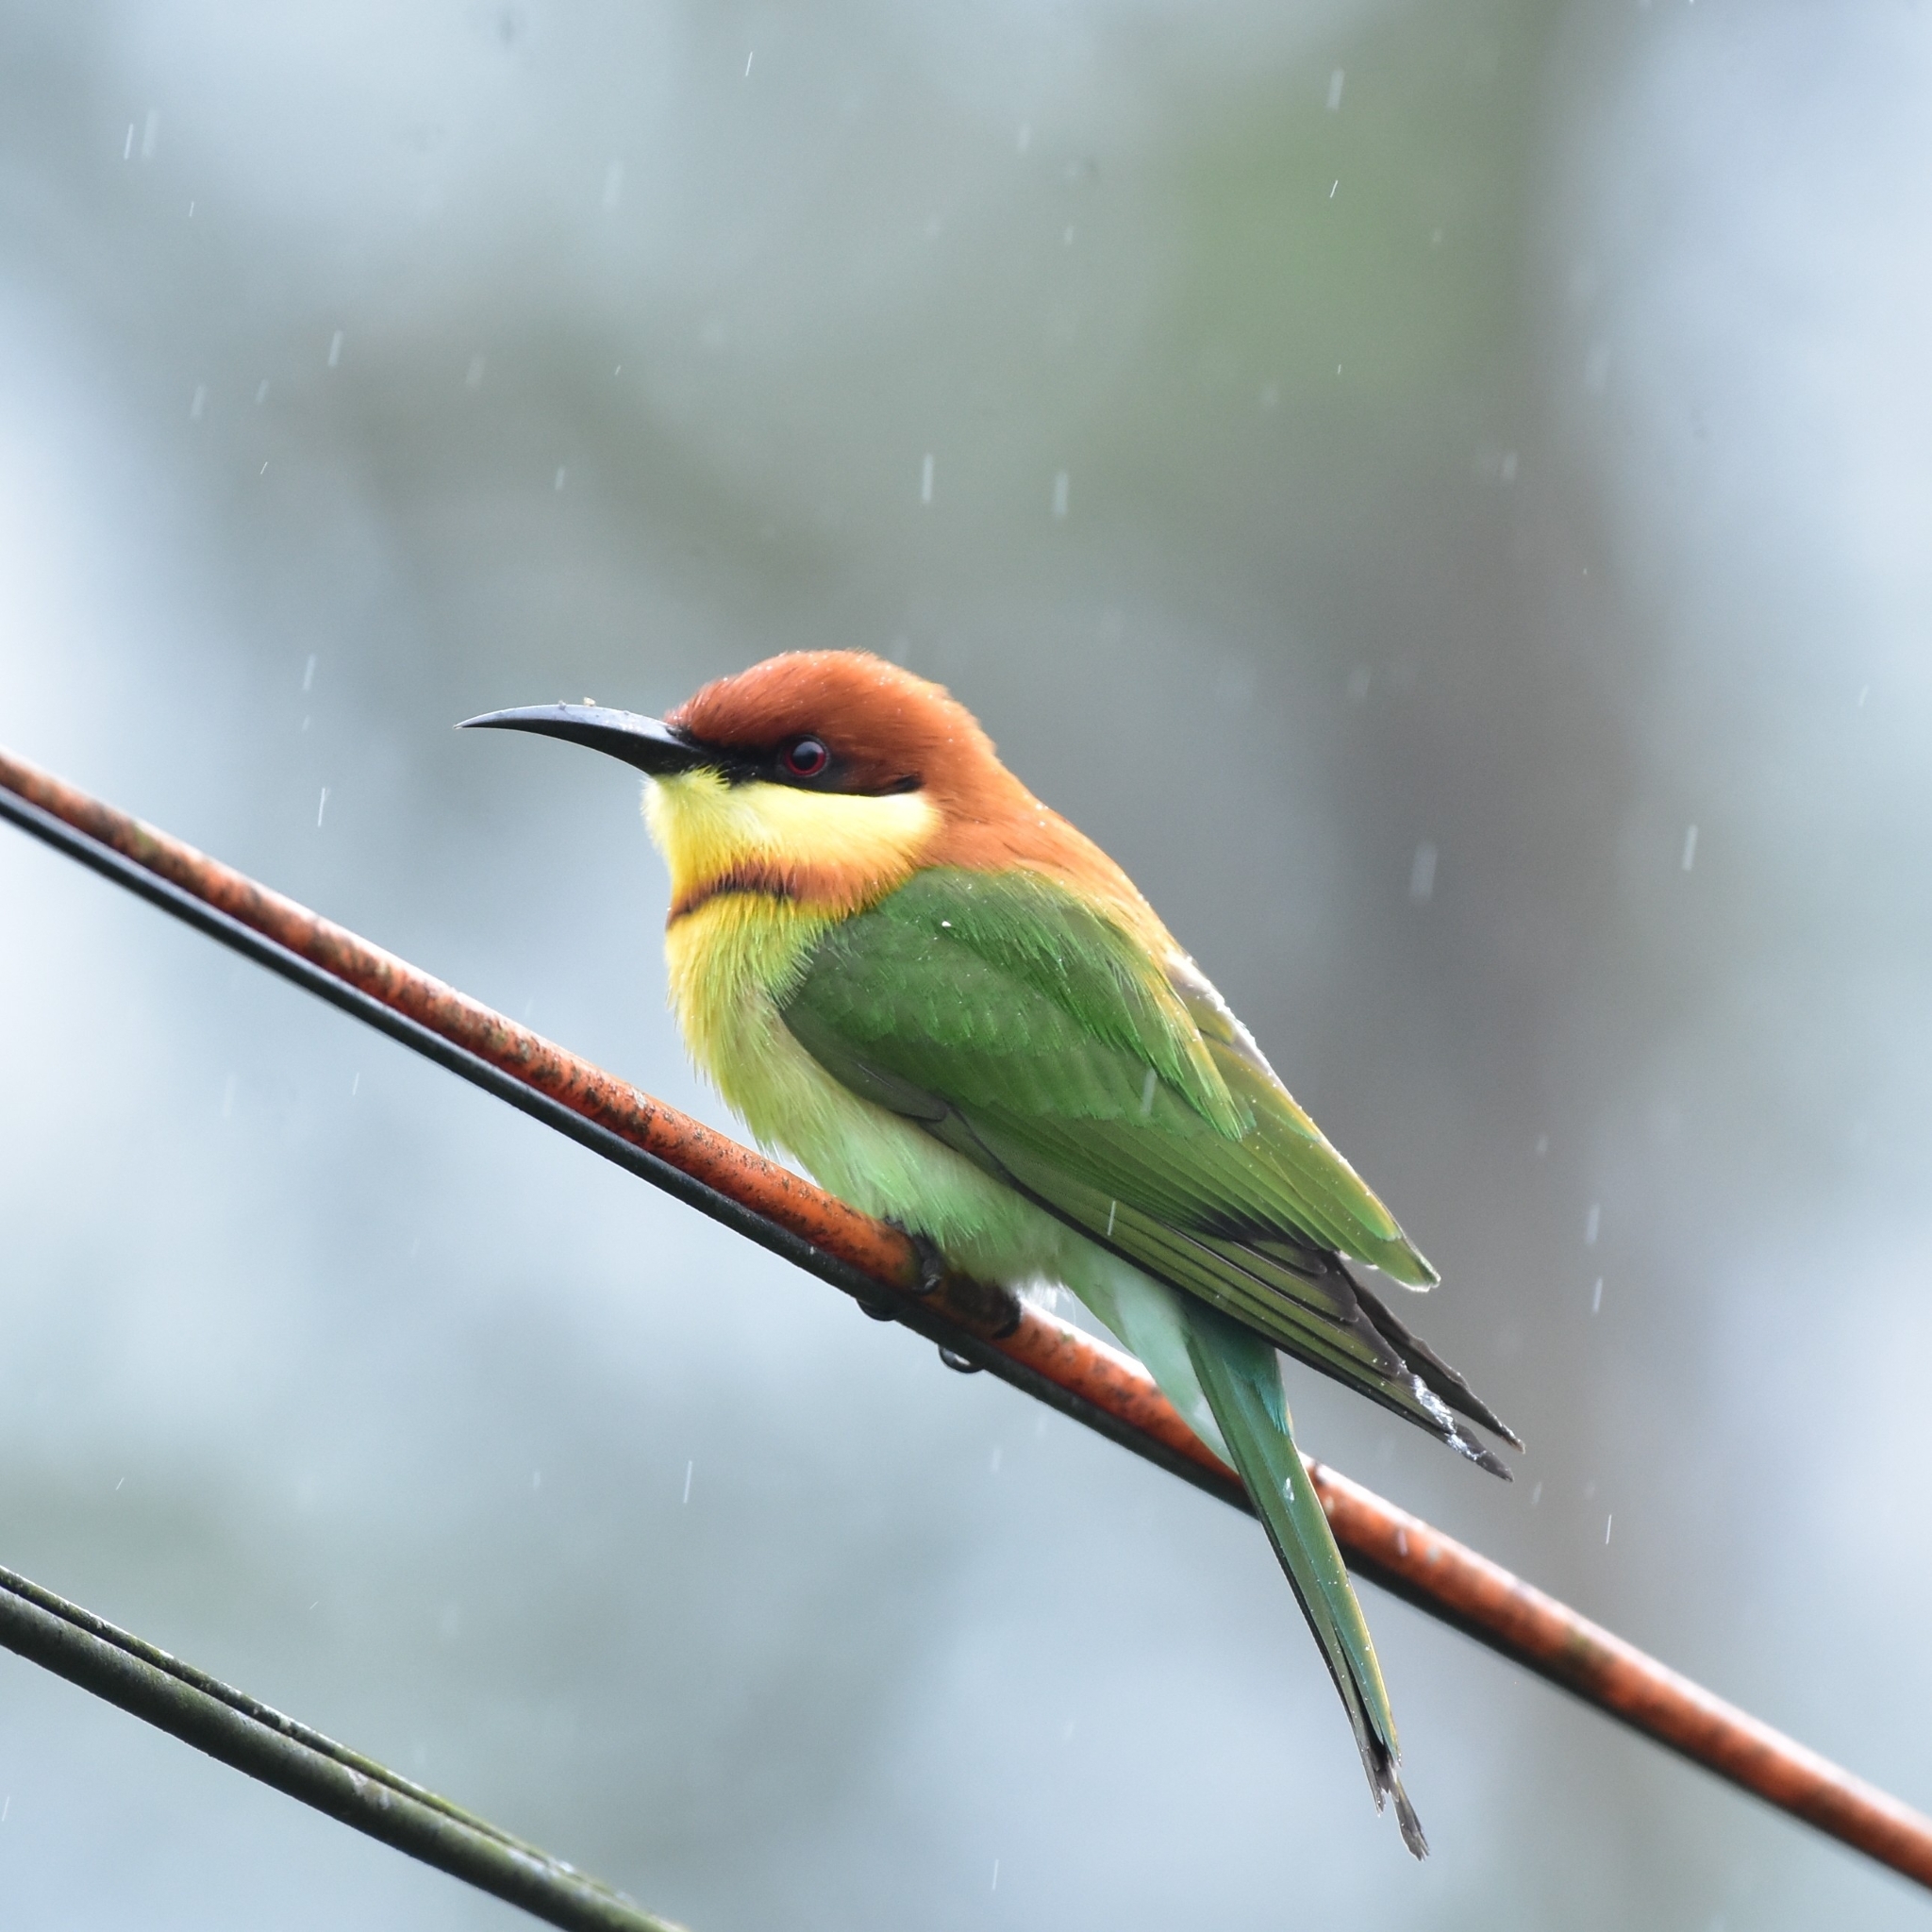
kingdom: Animalia
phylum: Chordata
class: Aves
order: Coraciiformes
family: Meropidae
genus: Merops
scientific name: Merops leschenaulti
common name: Chestnut-headed bee-eater
